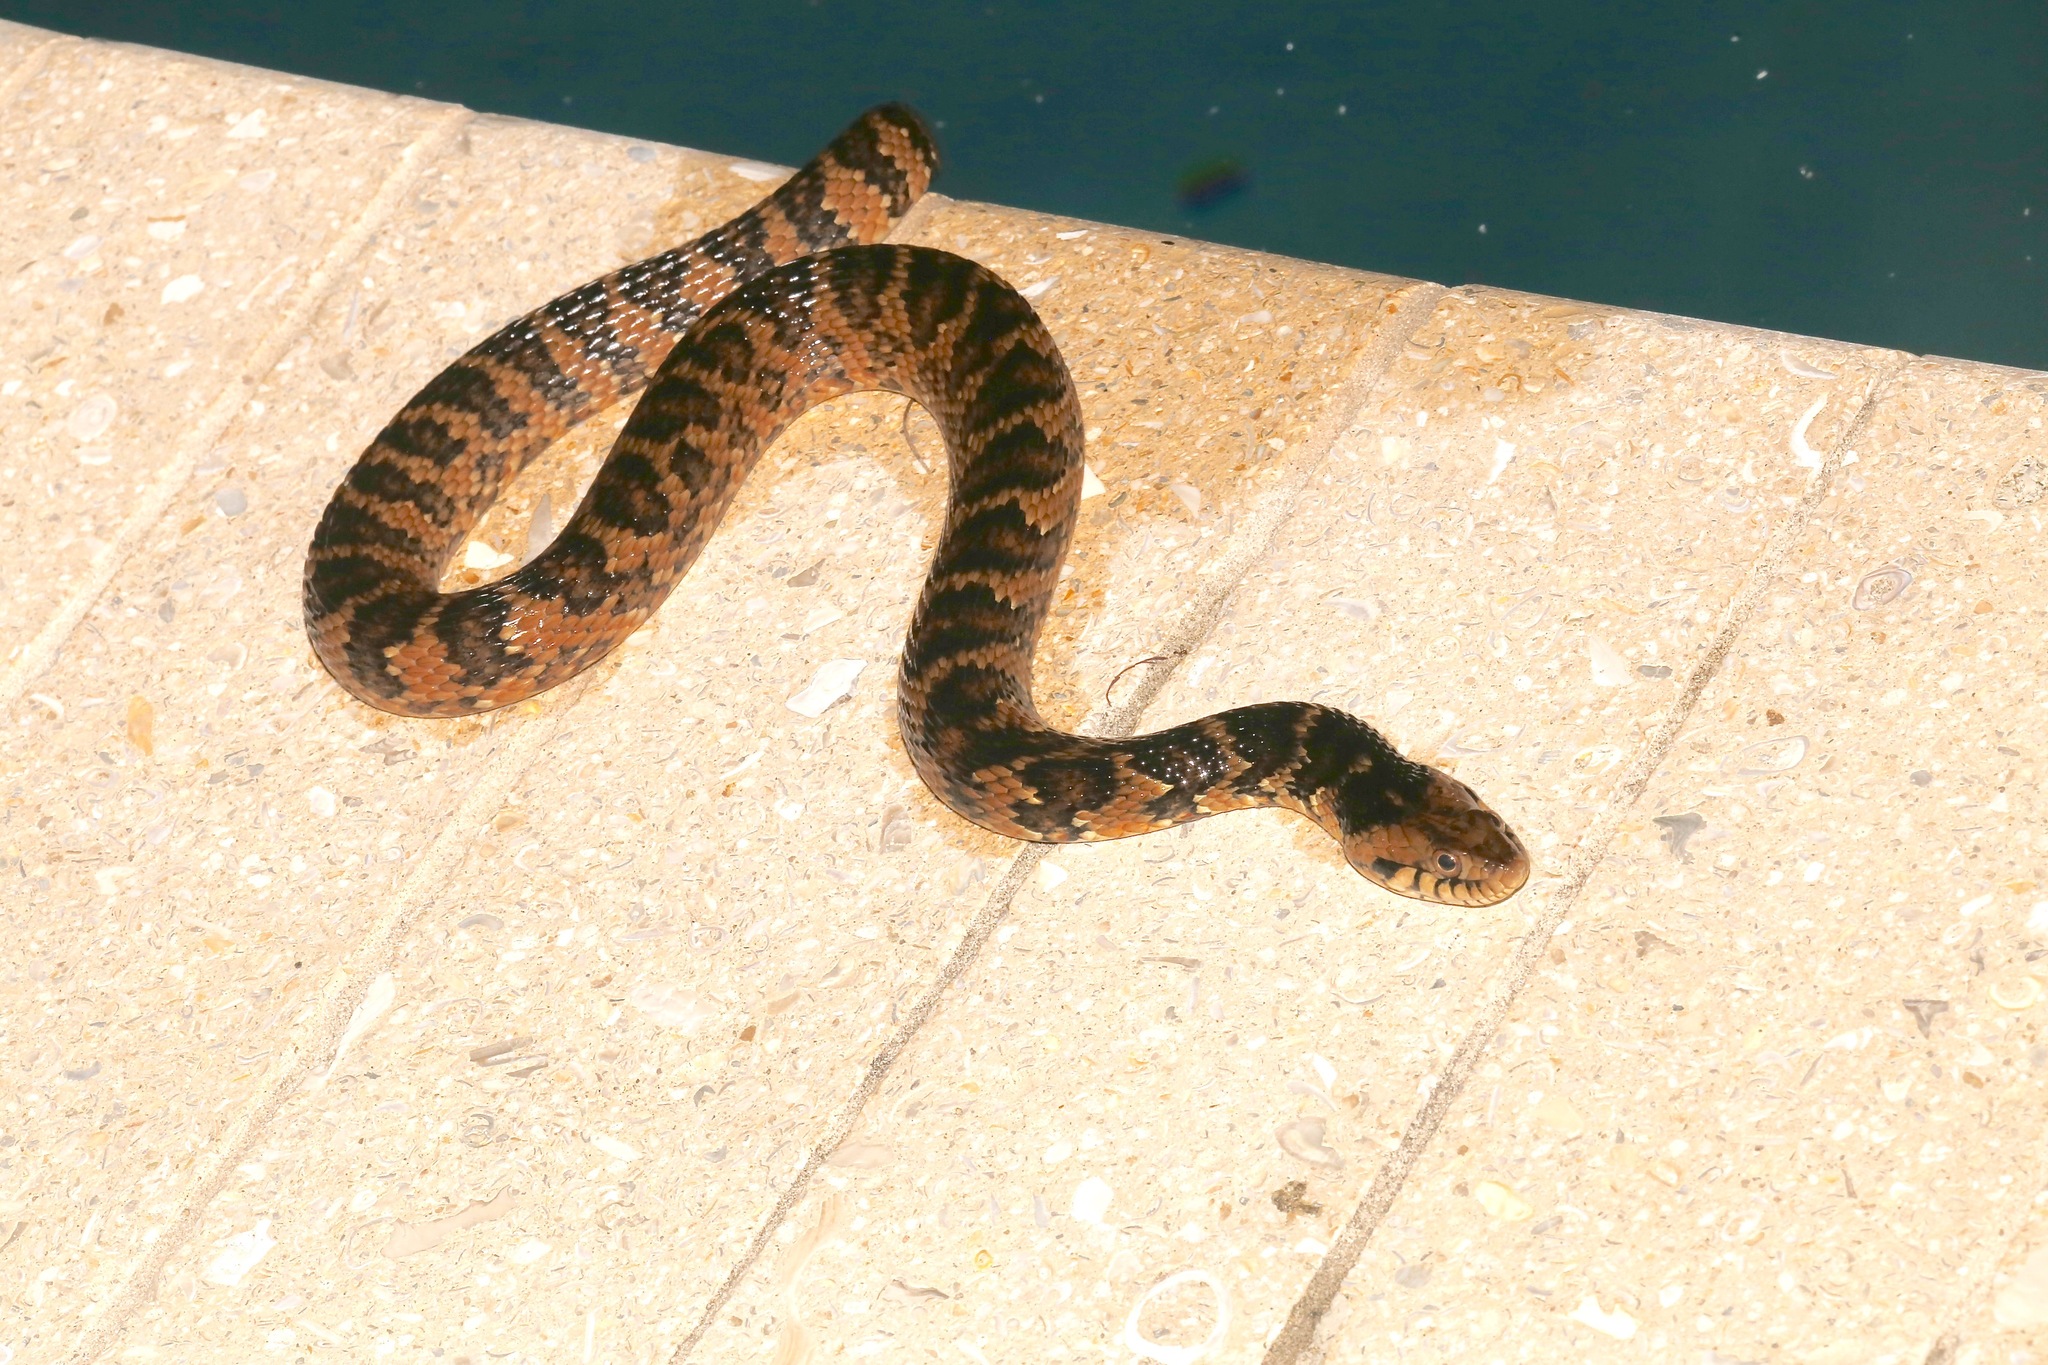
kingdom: Animalia
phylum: Chordata
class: Squamata
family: Colubridae
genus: Nerodia
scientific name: Nerodia fasciata
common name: Southern water snake
